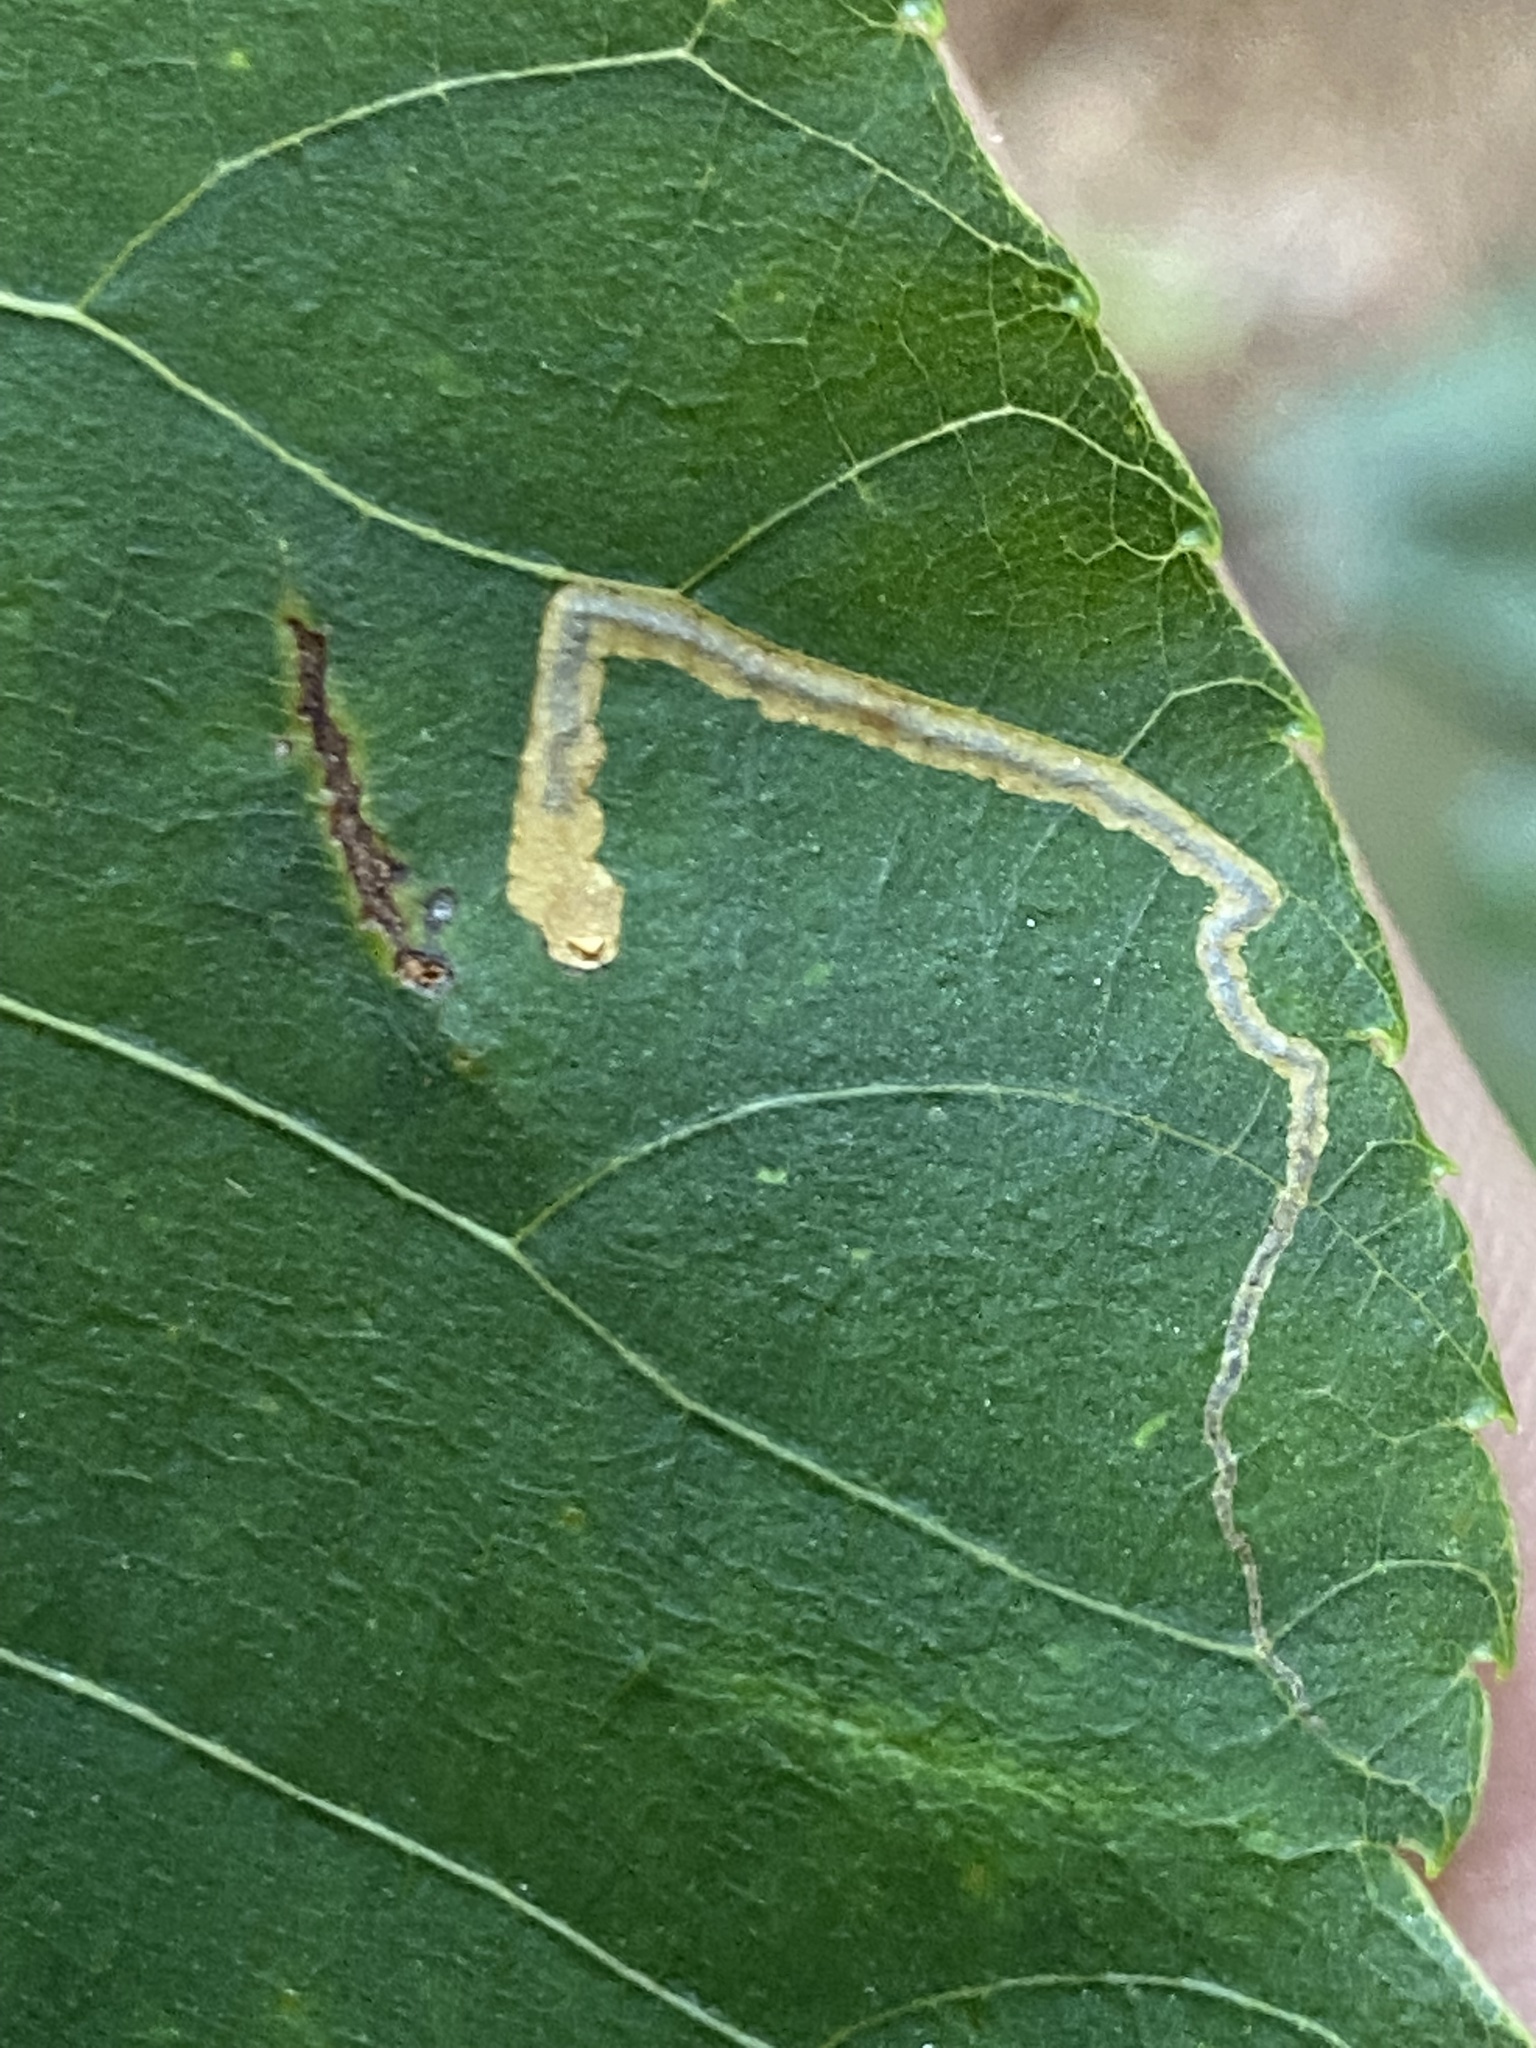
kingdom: Animalia
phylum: Arthropoda
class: Insecta
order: Lepidoptera
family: Nepticulidae
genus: Stigmella
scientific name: Stigmella caryaefoliella
